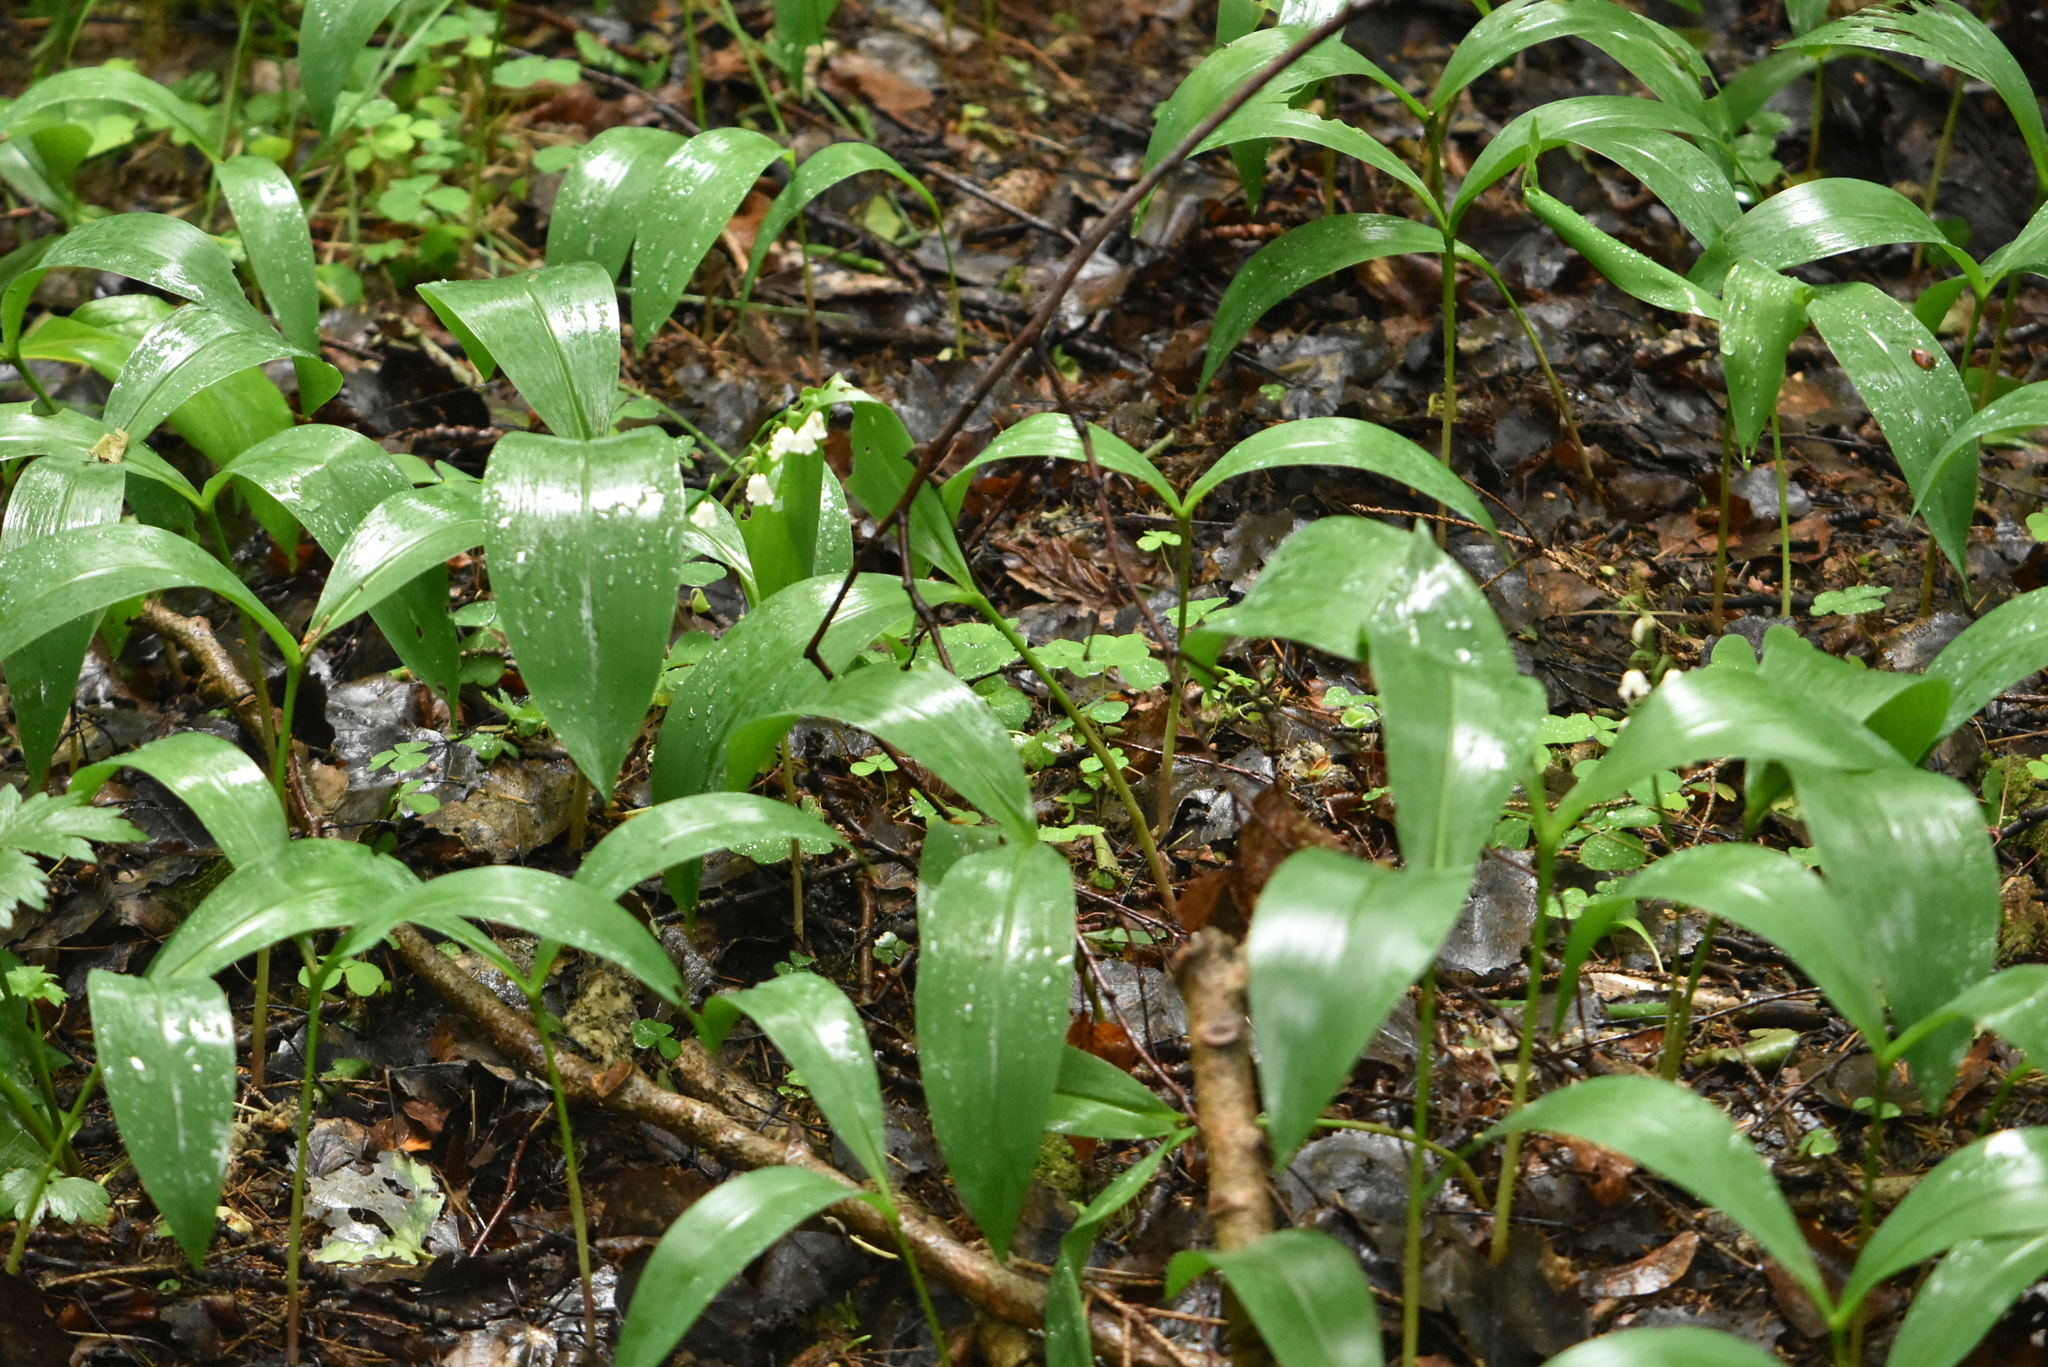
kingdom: Plantae
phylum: Tracheophyta
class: Liliopsida
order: Asparagales
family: Asparagaceae
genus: Convallaria
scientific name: Convallaria majalis
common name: Lily-of-the-valley
